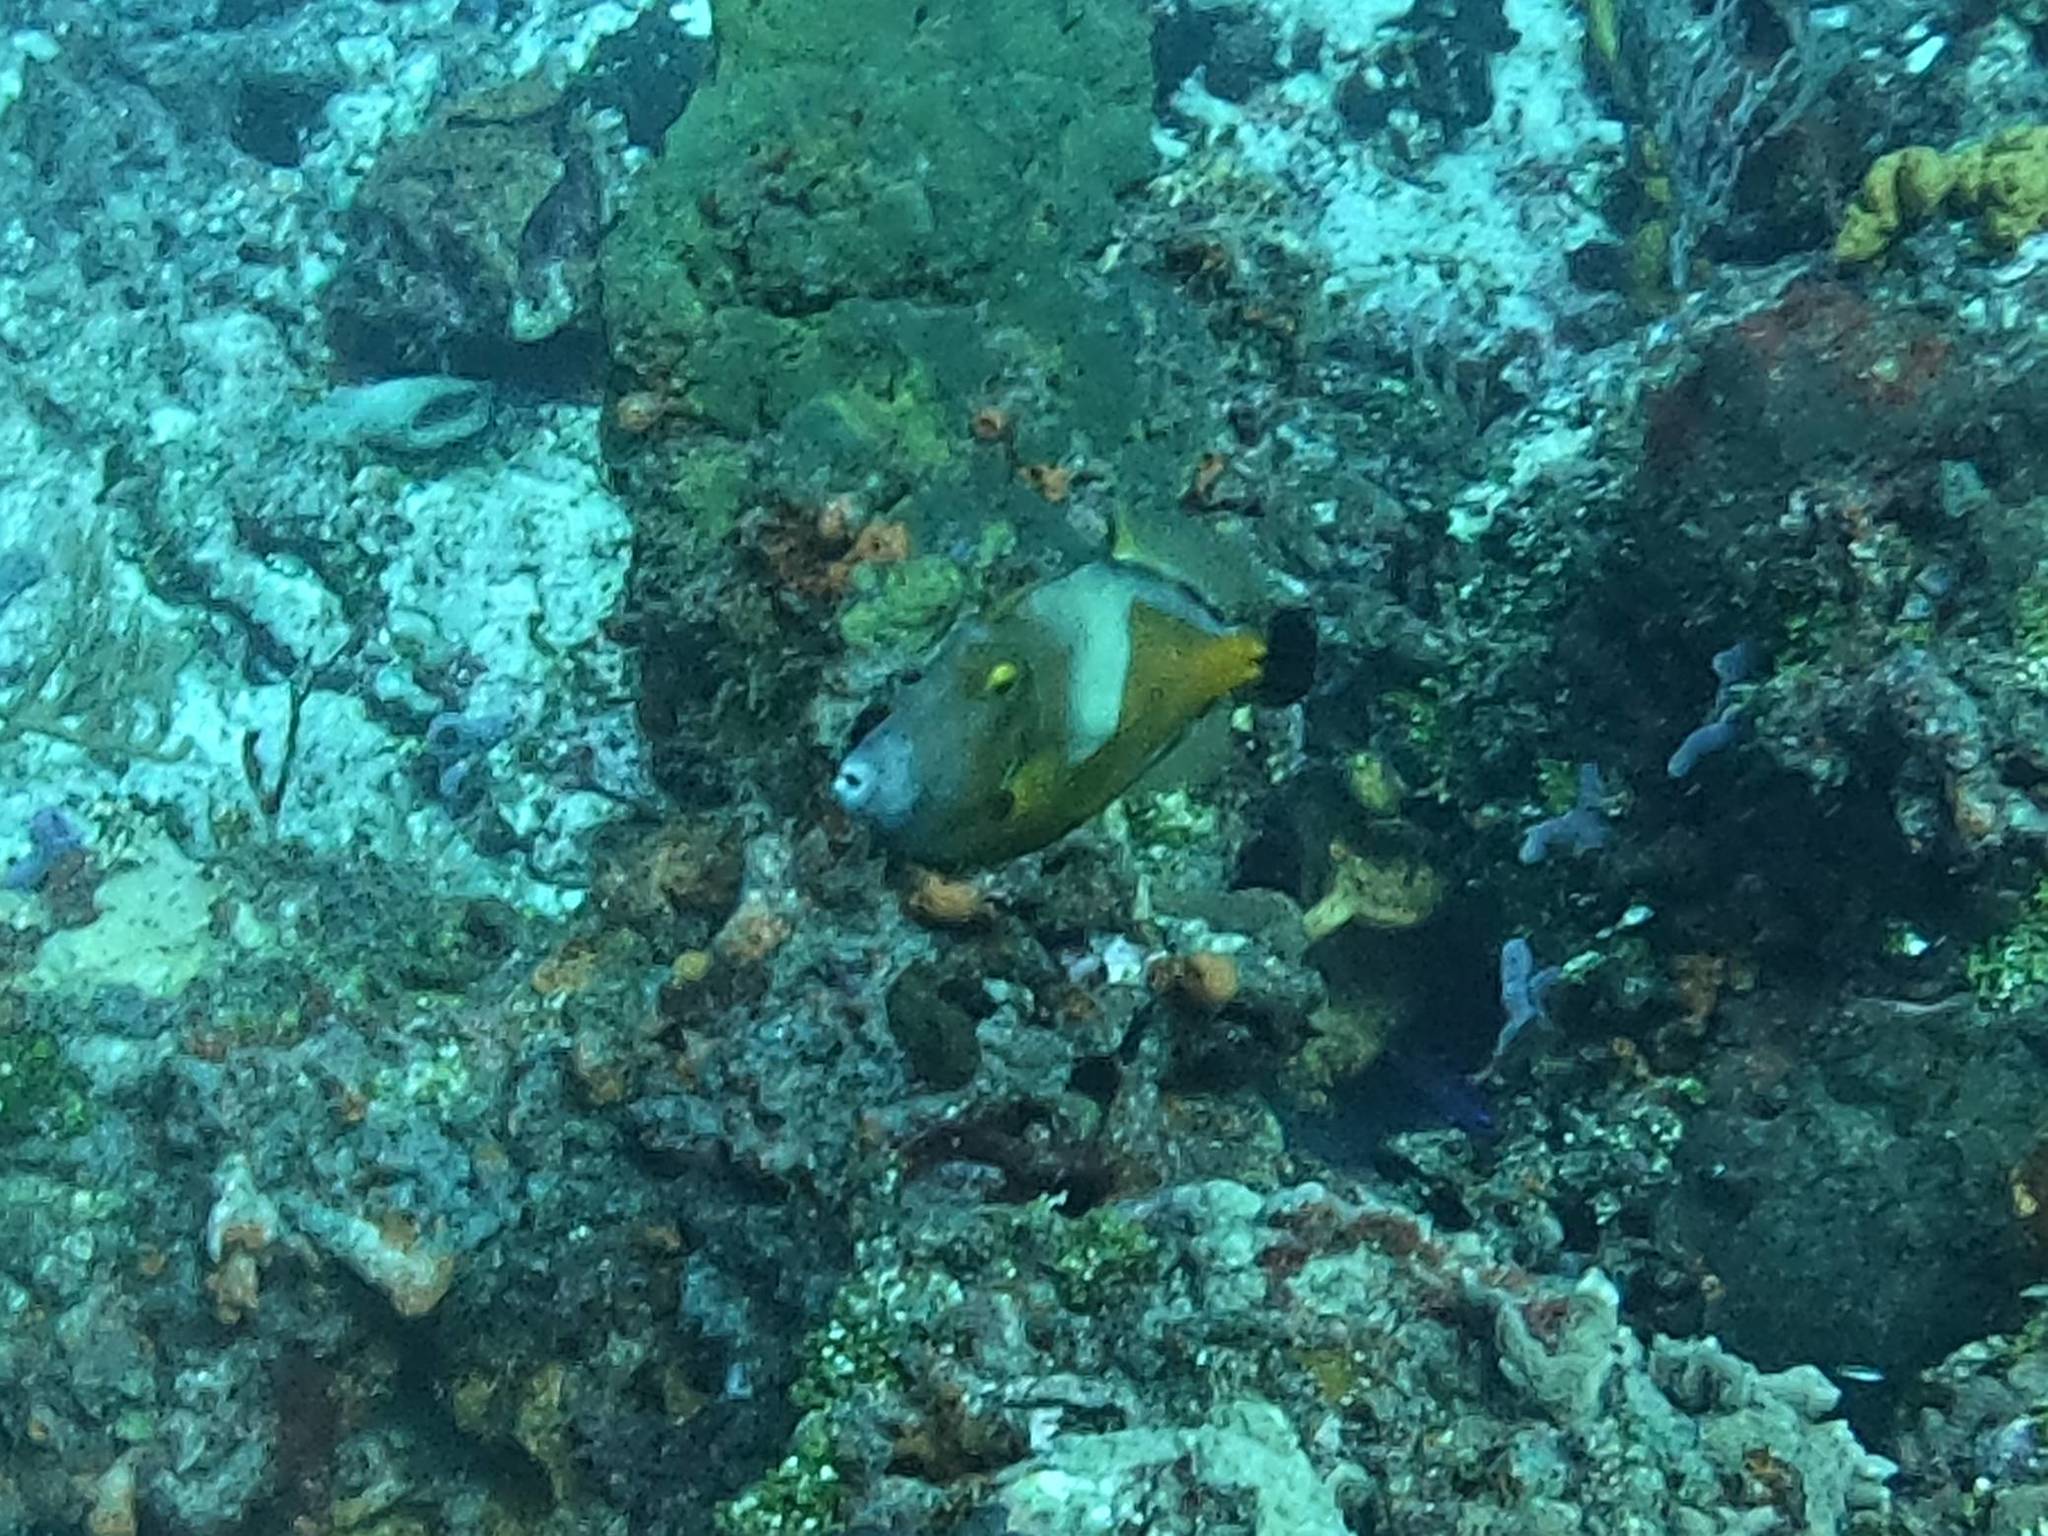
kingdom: Animalia
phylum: Chordata
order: Tetraodontiformes
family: Monacanthidae
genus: Cantherhines
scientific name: Cantherhines macrocerus
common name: Whitespotted filefish
